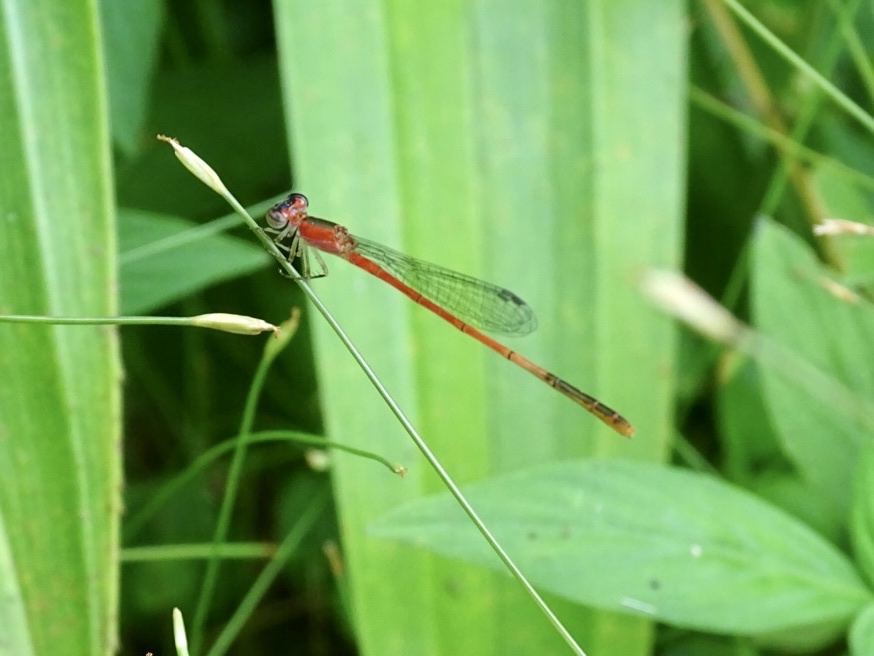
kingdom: Animalia
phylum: Arthropoda
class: Insecta
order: Odonata
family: Coenagrionidae
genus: Agriocnemis
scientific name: Agriocnemis femina
